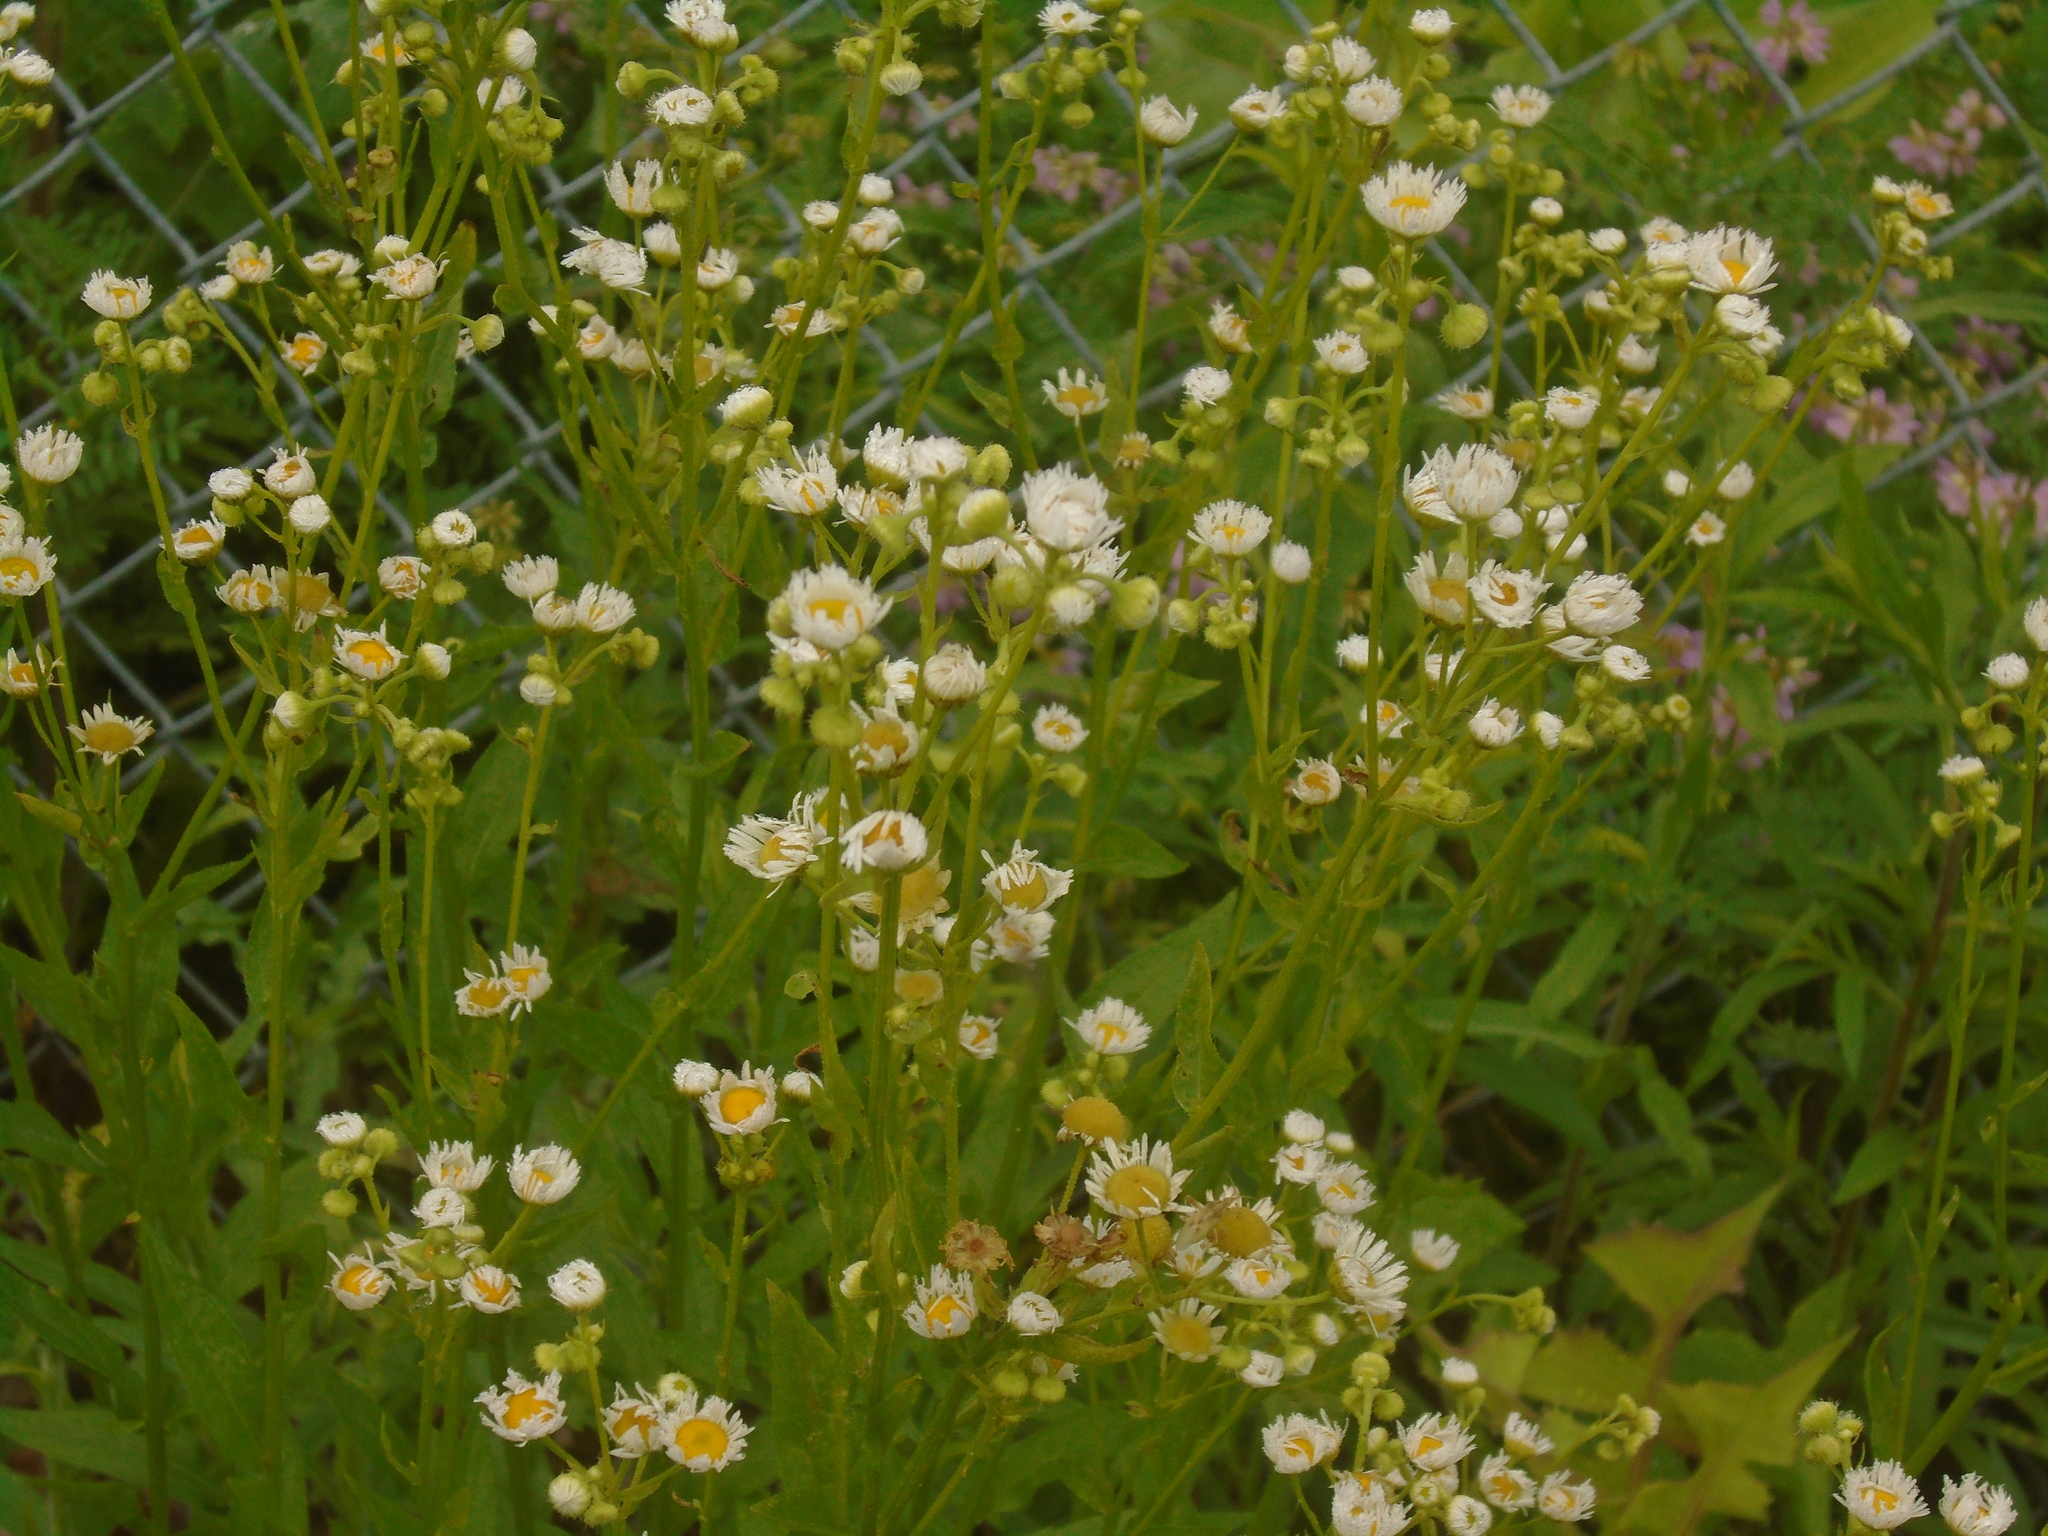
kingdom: Plantae
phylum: Tracheophyta
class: Magnoliopsida
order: Asterales
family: Asteraceae
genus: Erigeron
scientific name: Erigeron annuus
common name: Tall fleabane
